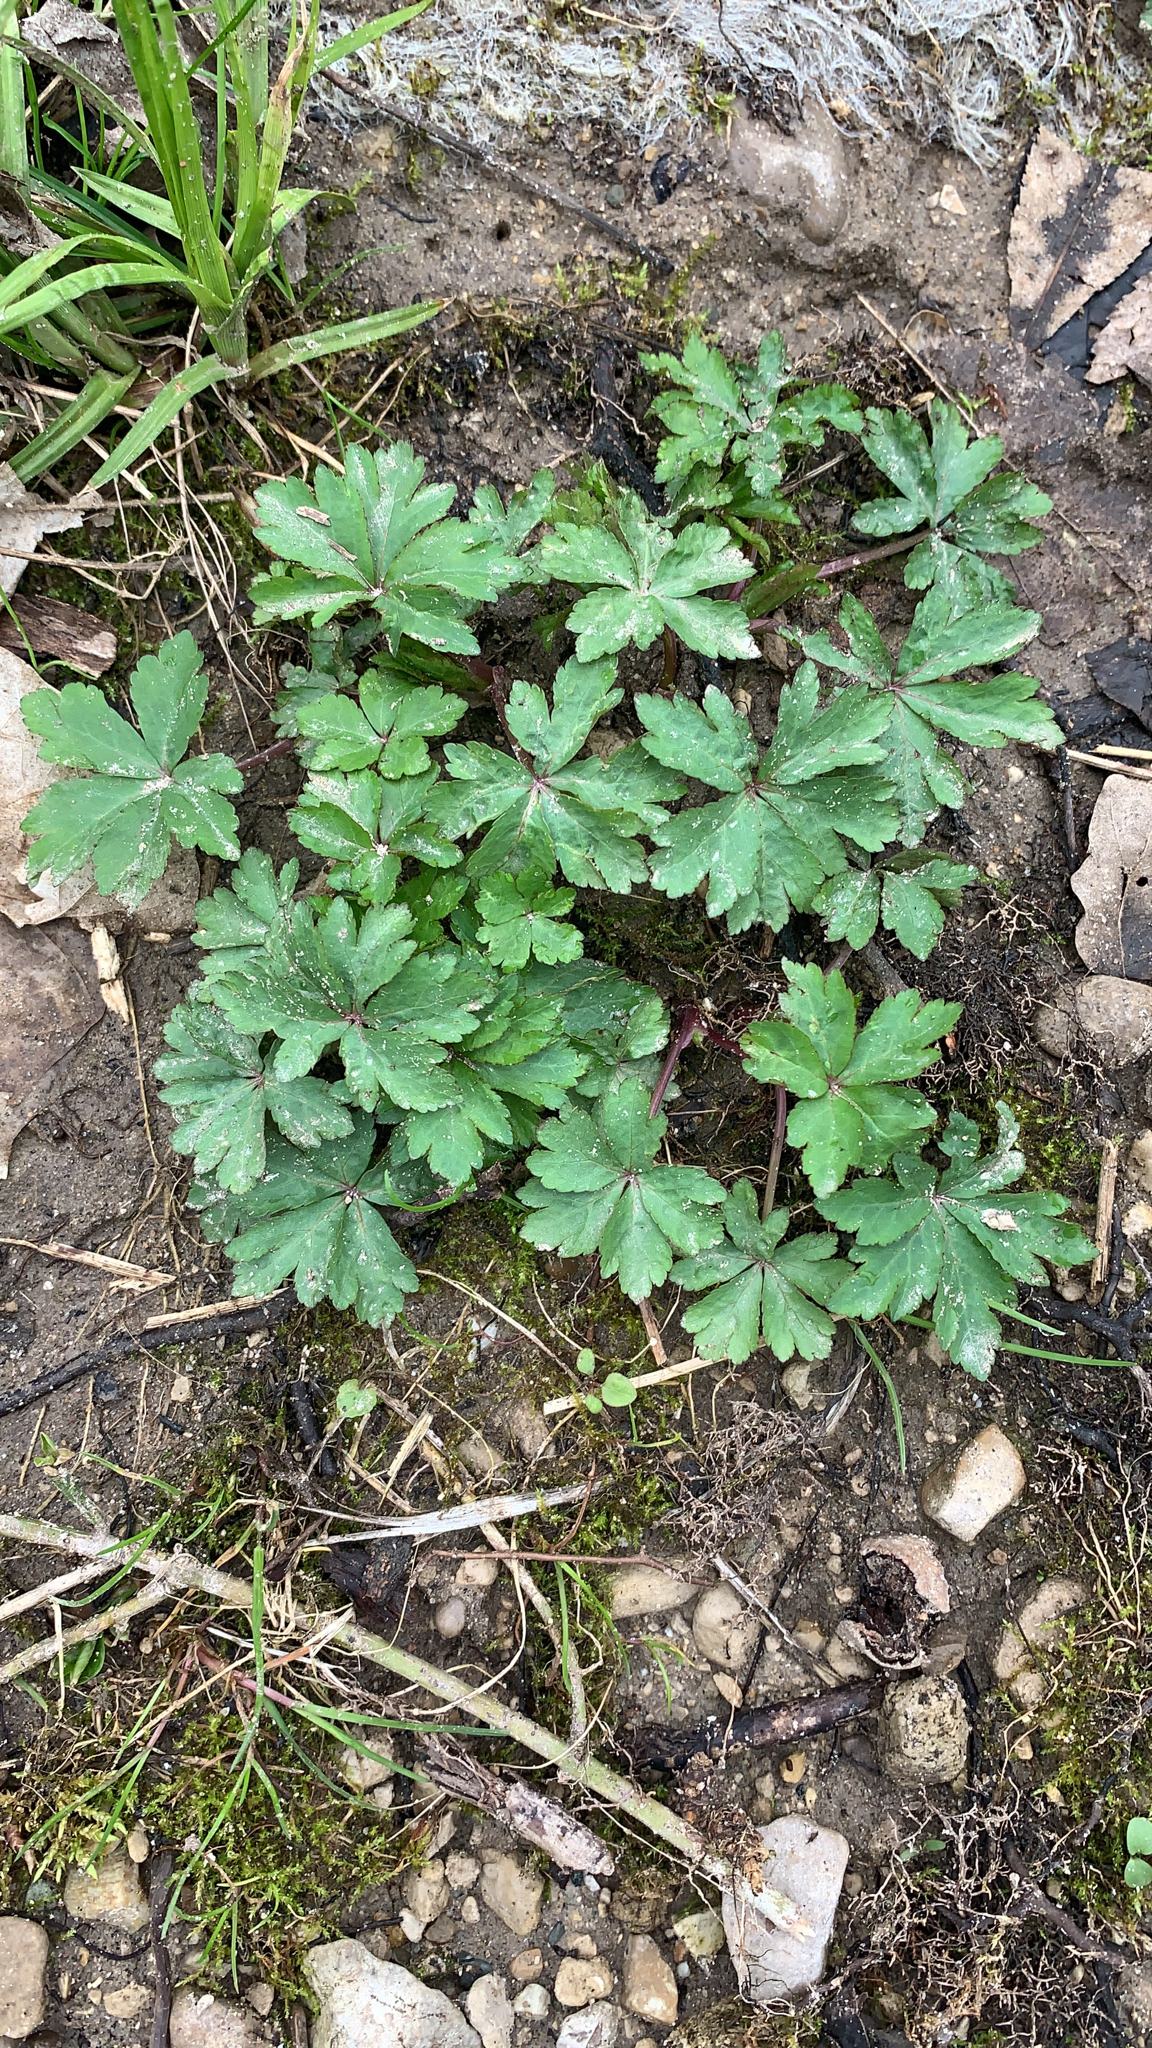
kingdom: Plantae
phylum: Tracheophyta
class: Magnoliopsida
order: Apiales
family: Apiaceae
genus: Sanicula
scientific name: Sanicula odorata
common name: Cluster sanicle
